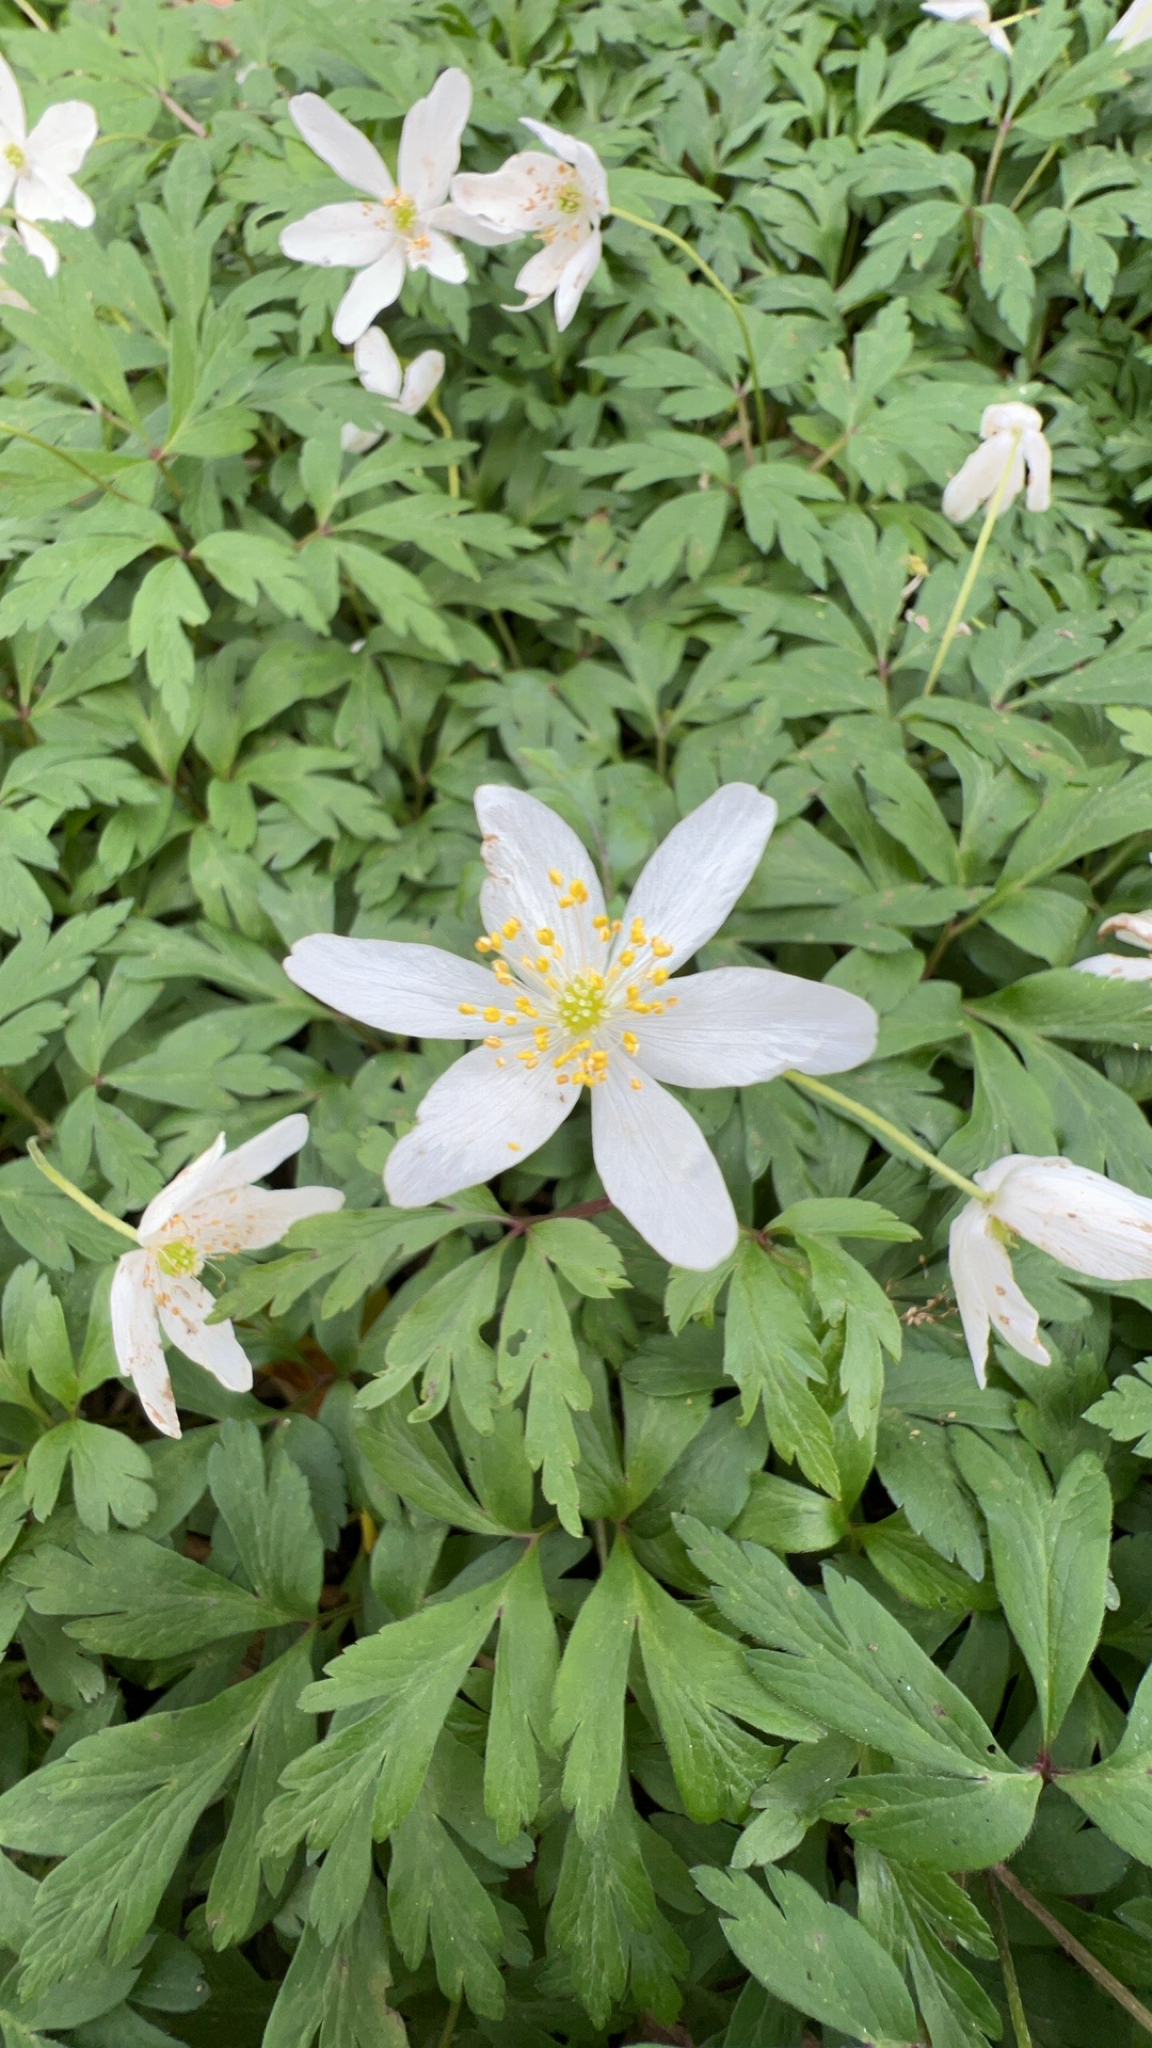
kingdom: Plantae
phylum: Tracheophyta
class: Magnoliopsida
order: Ranunculales
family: Ranunculaceae
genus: Anemone
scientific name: Anemone nemorosa
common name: Wood anemone
